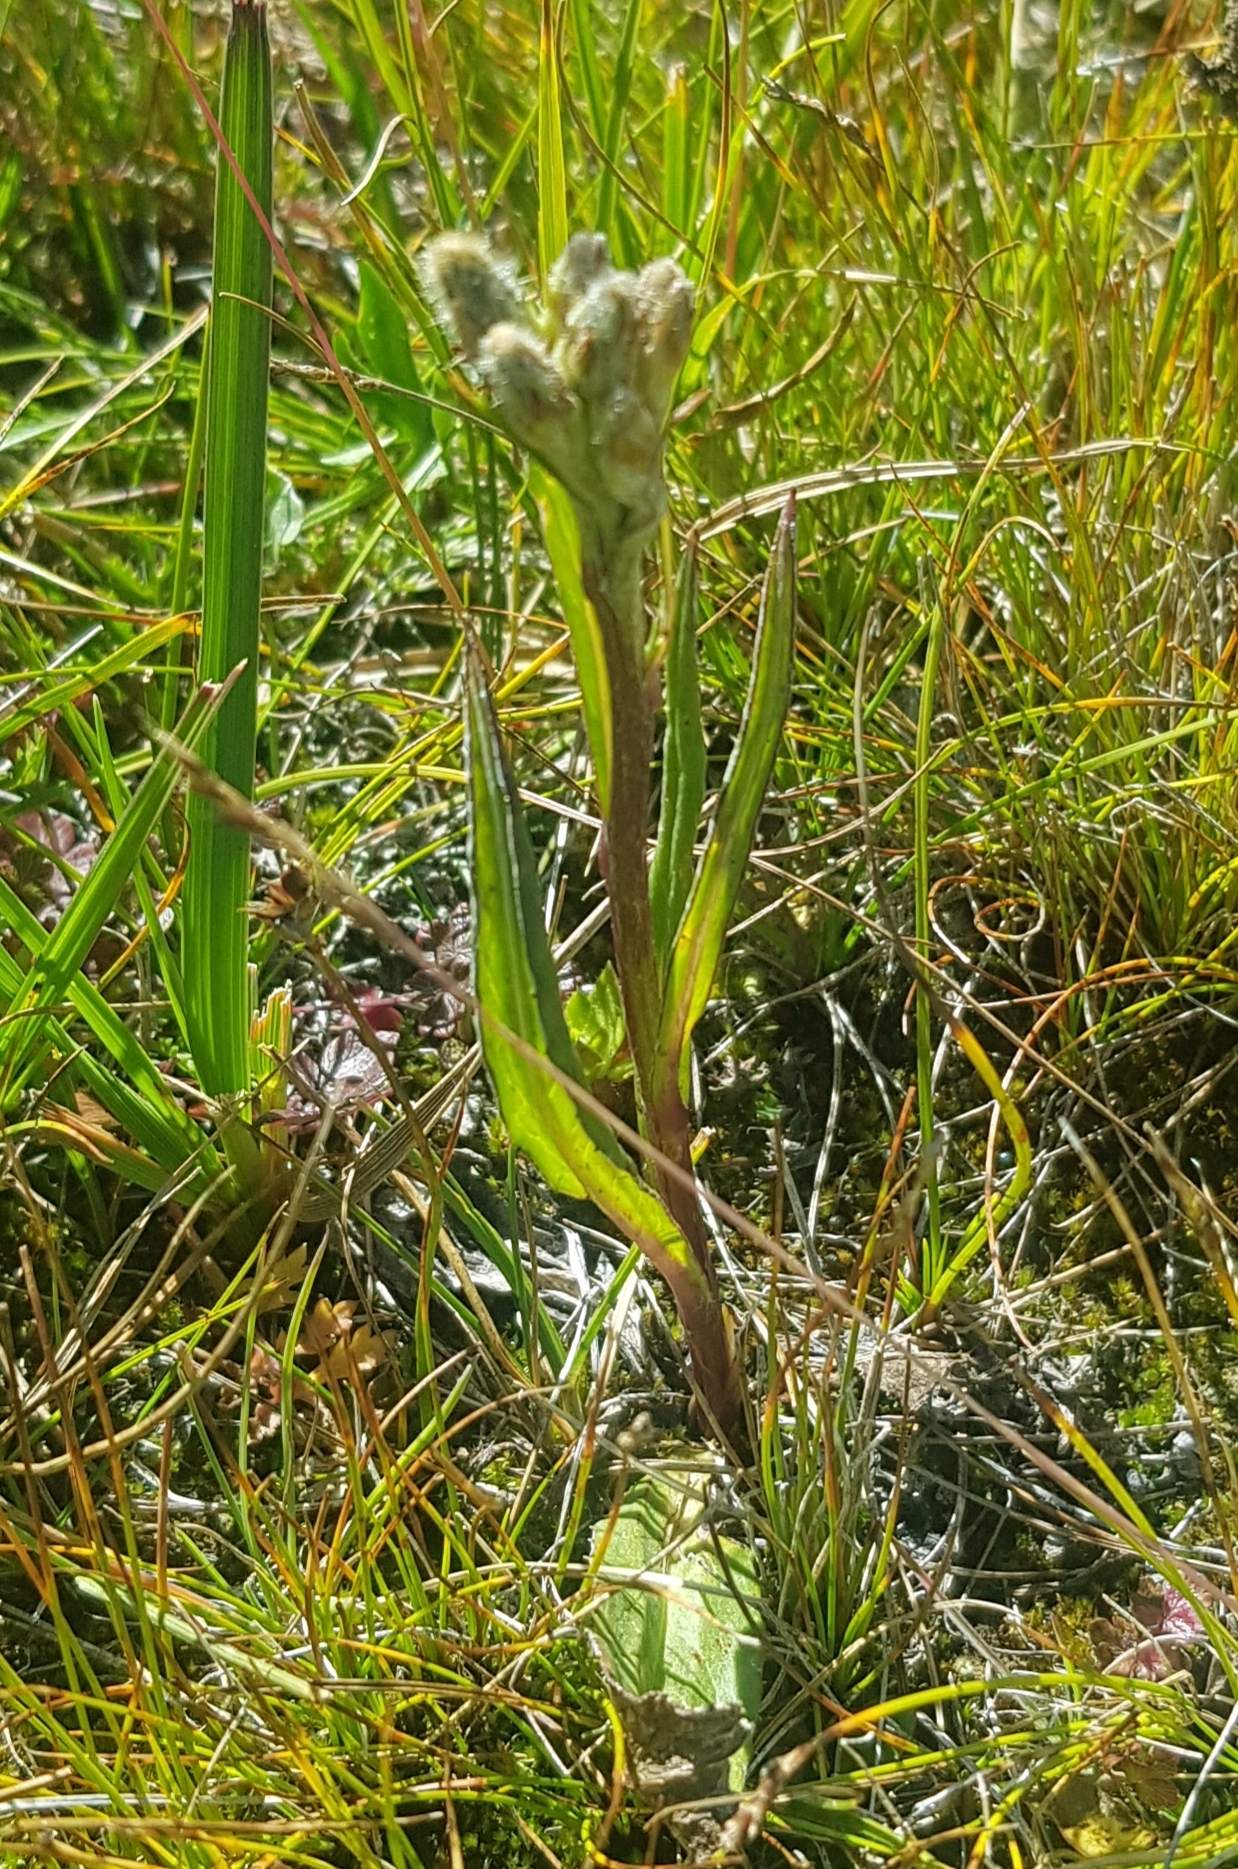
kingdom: Plantae
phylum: Tracheophyta
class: Magnoliopsida
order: Asterales
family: Asteraceae
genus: Saussurea
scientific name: Saussurea alpina
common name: Alpine saw-wort
